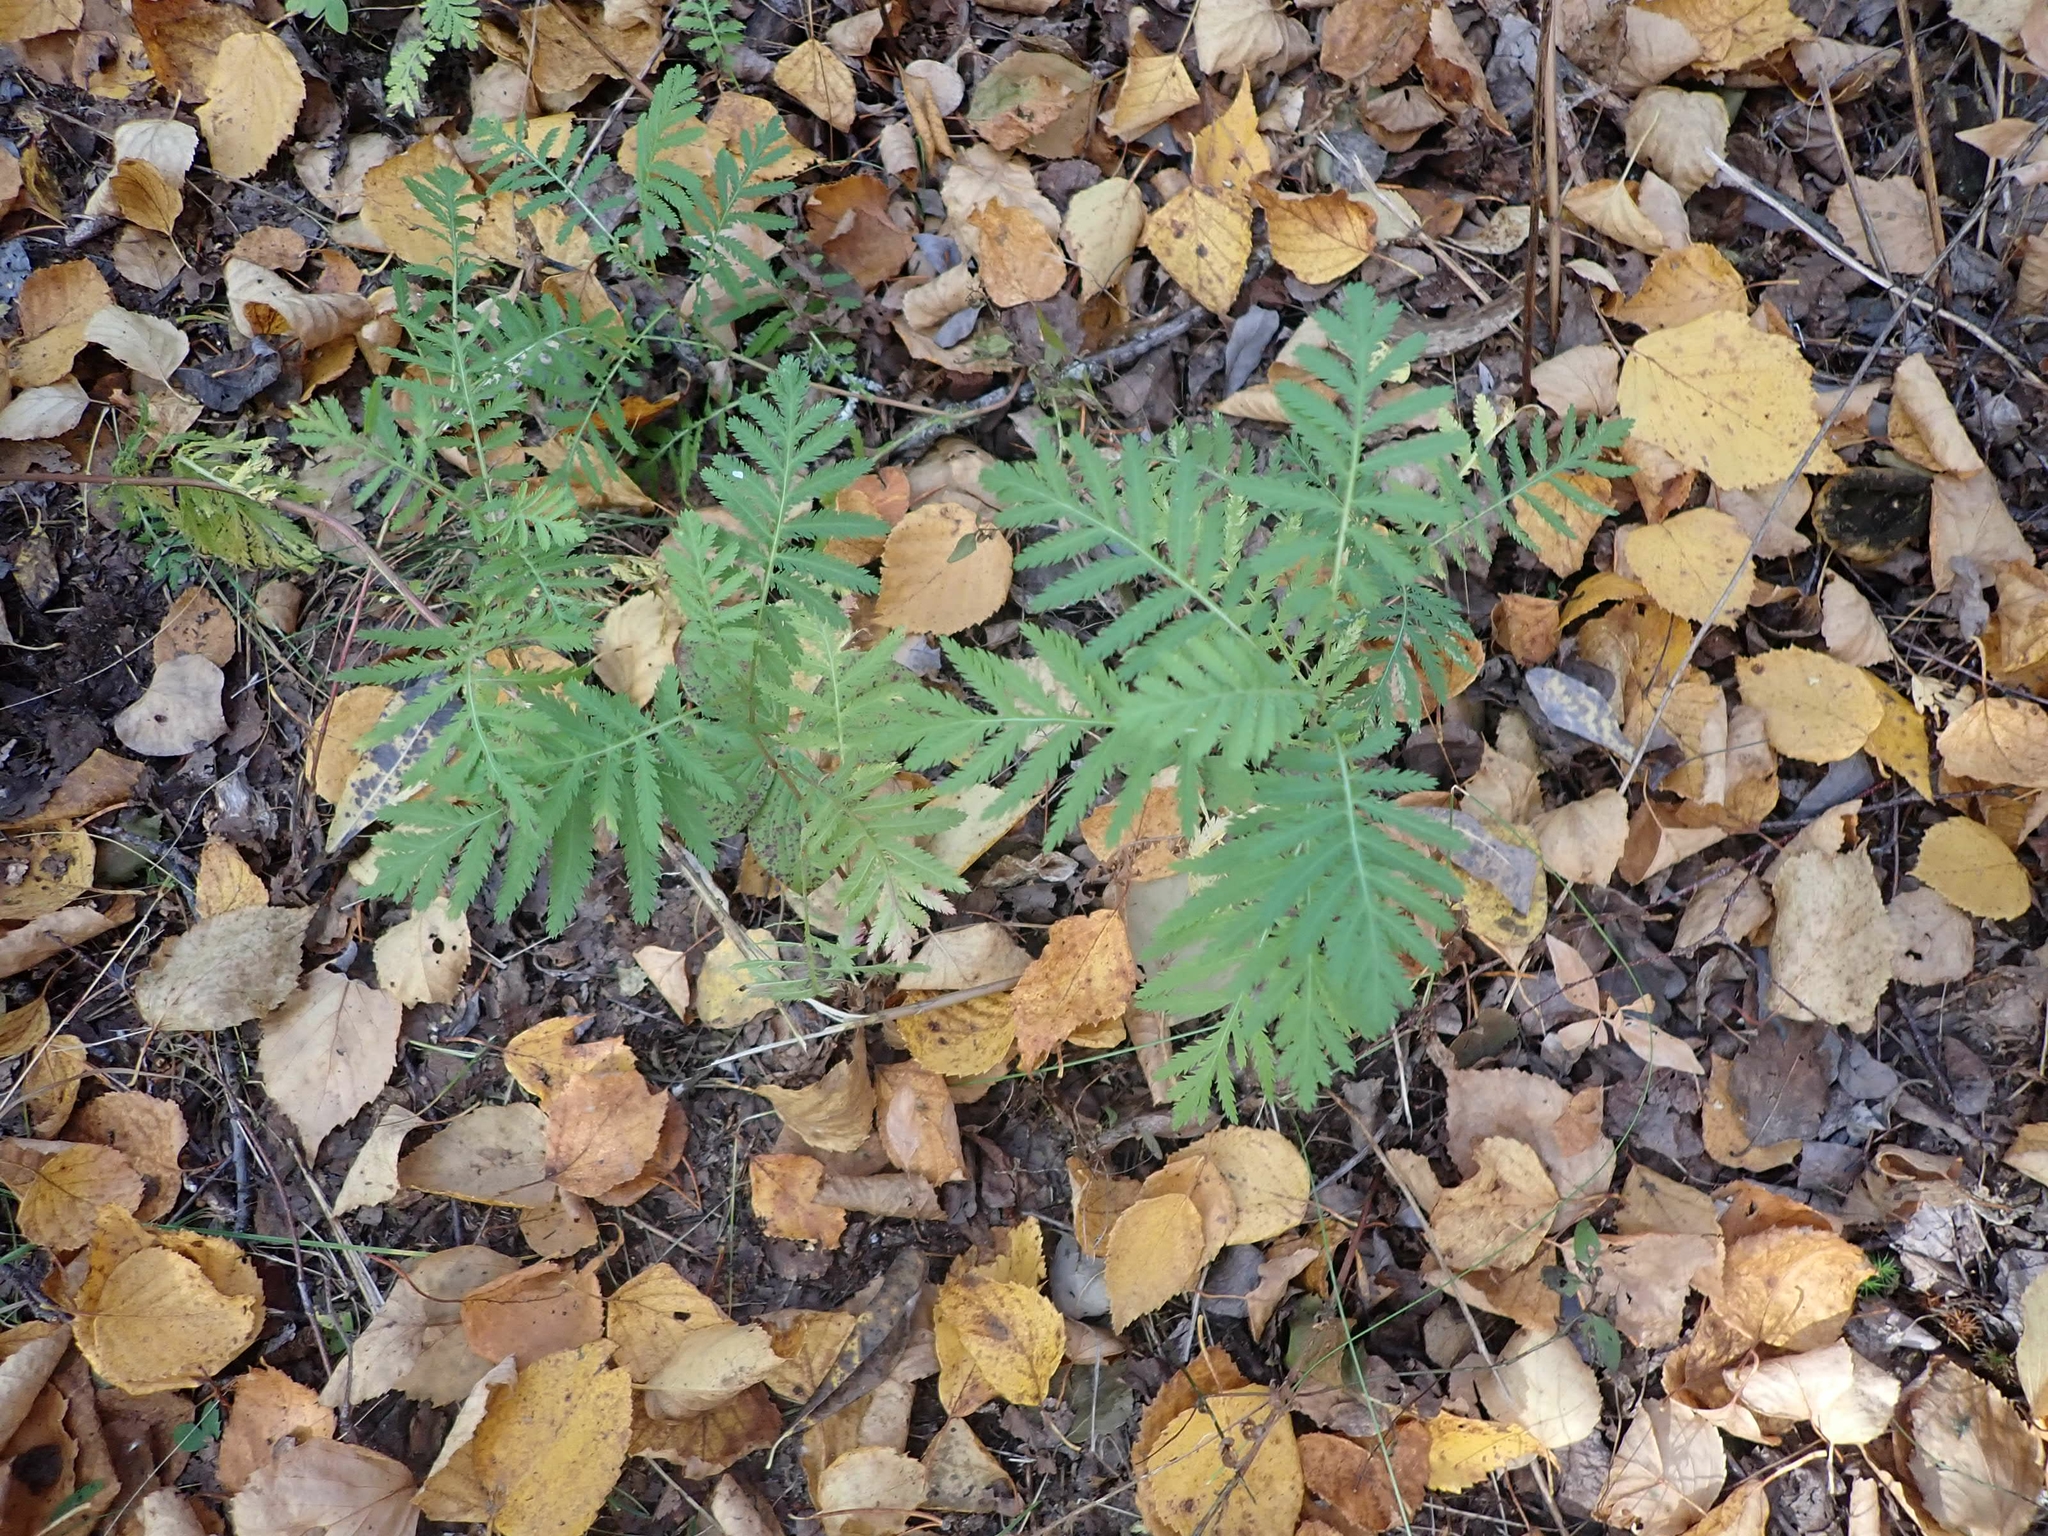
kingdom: Plantae
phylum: Tracheophyta
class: Magnoliopsida
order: Asterales
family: Asteraceae
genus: Tanacetum
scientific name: Tanacetum vulgare
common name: Common tansy
